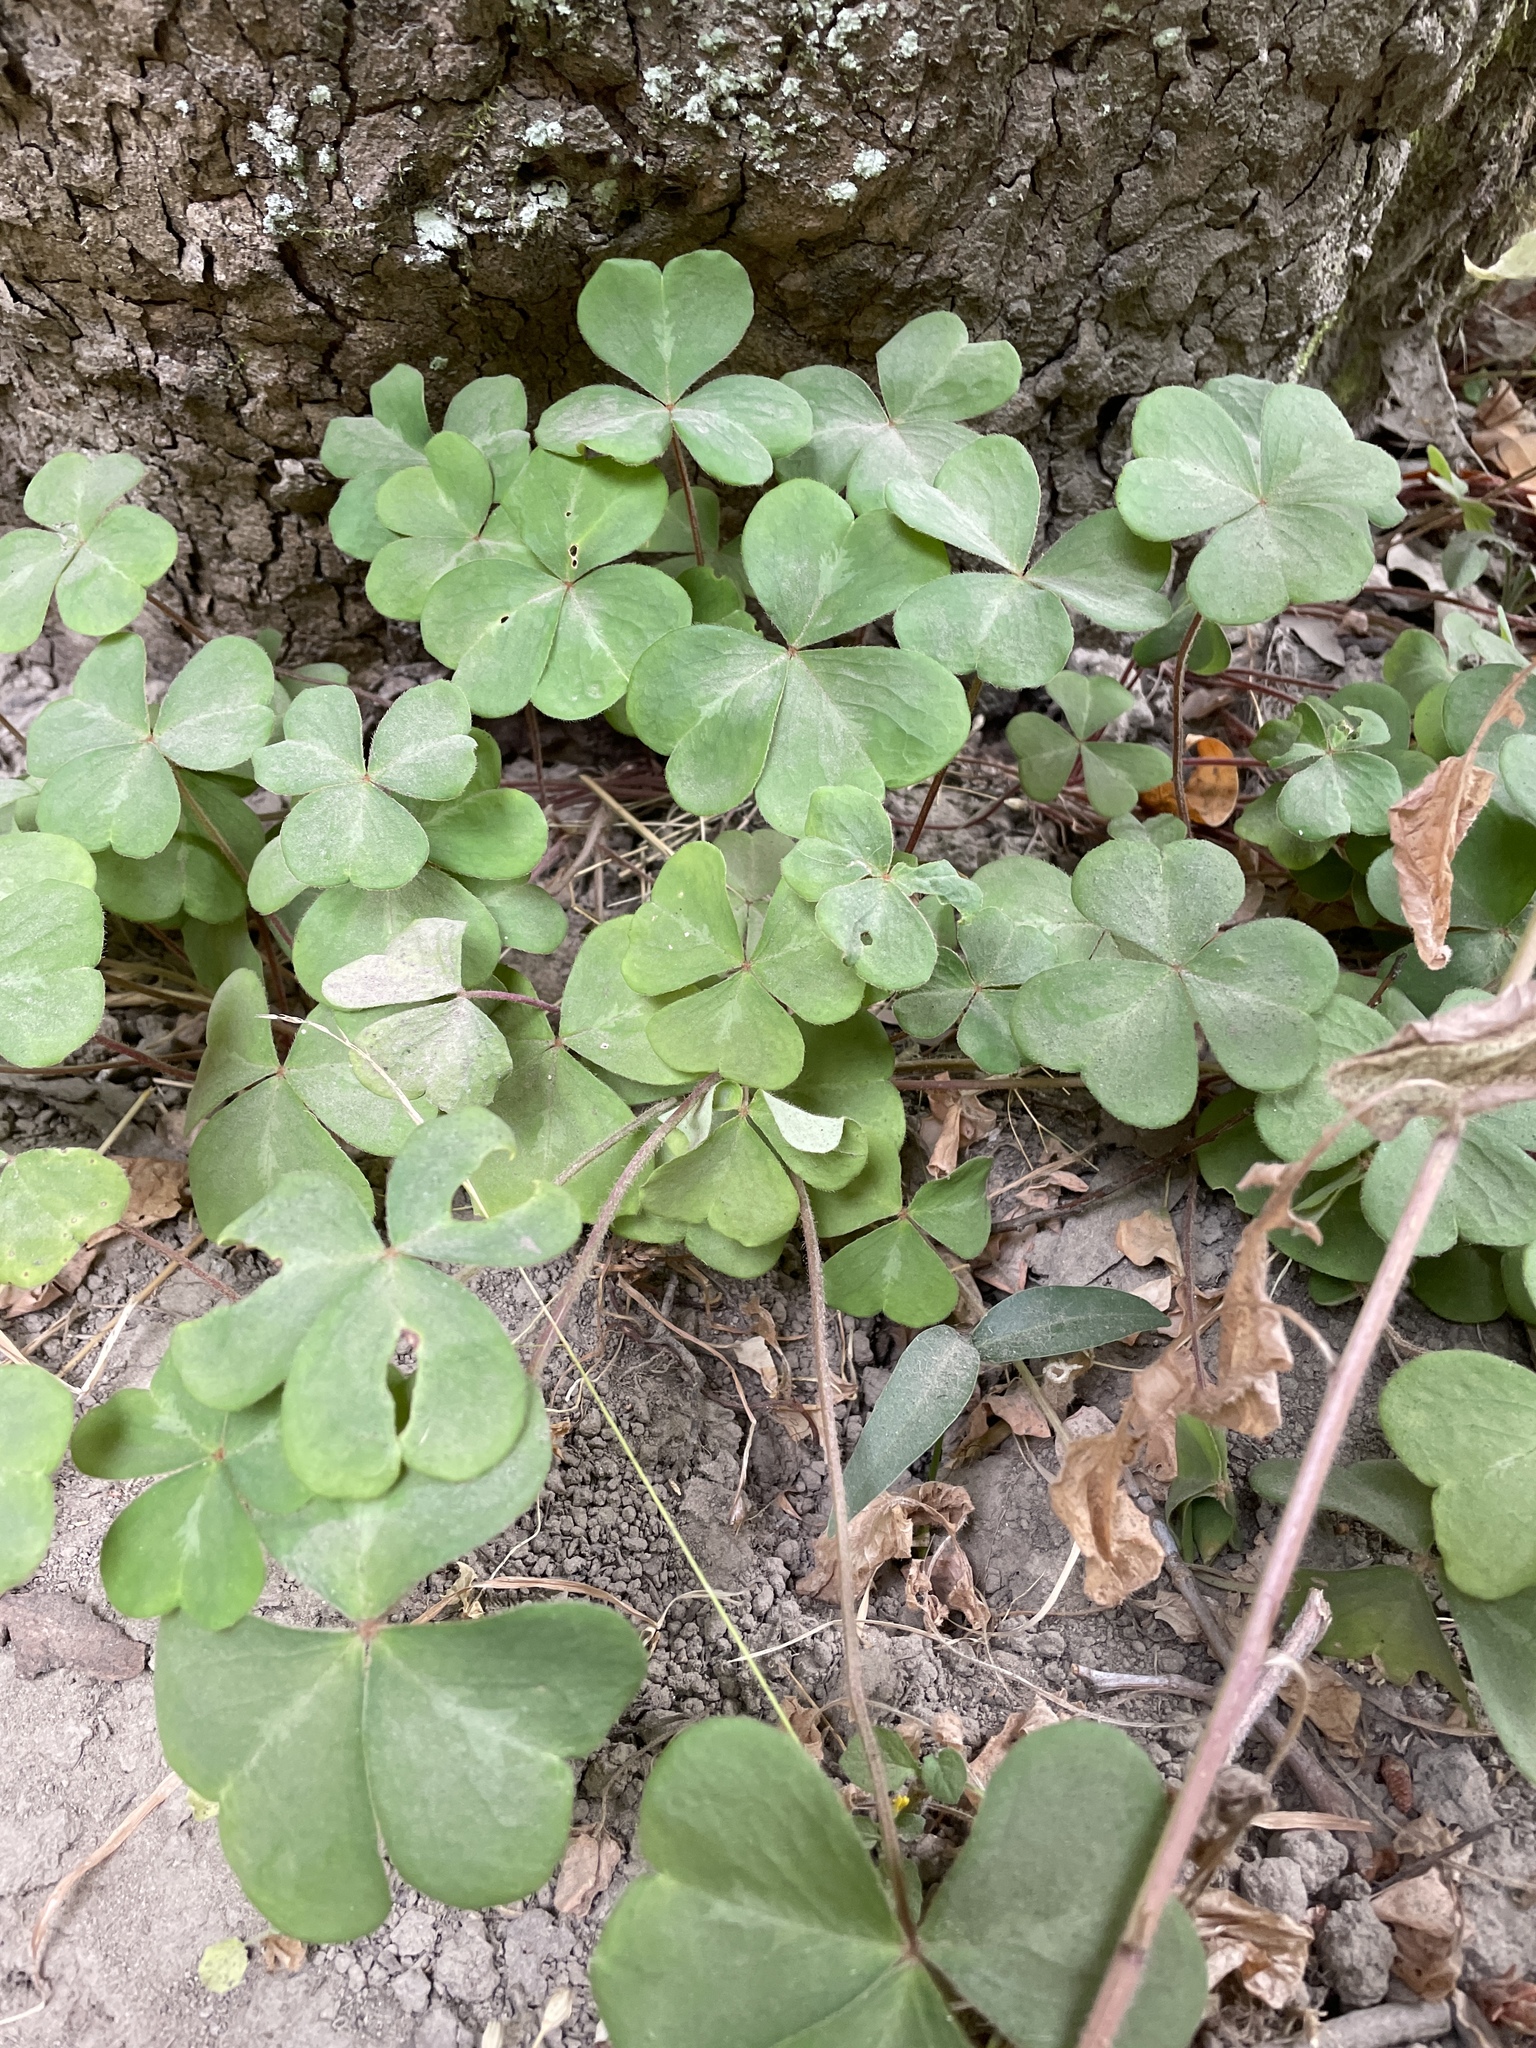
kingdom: Plantae
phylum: Tracheophyta
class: Magnoliopsida
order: Oxalidales
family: Oxalidaceae
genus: Oxalis
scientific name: Oxalis oregana
